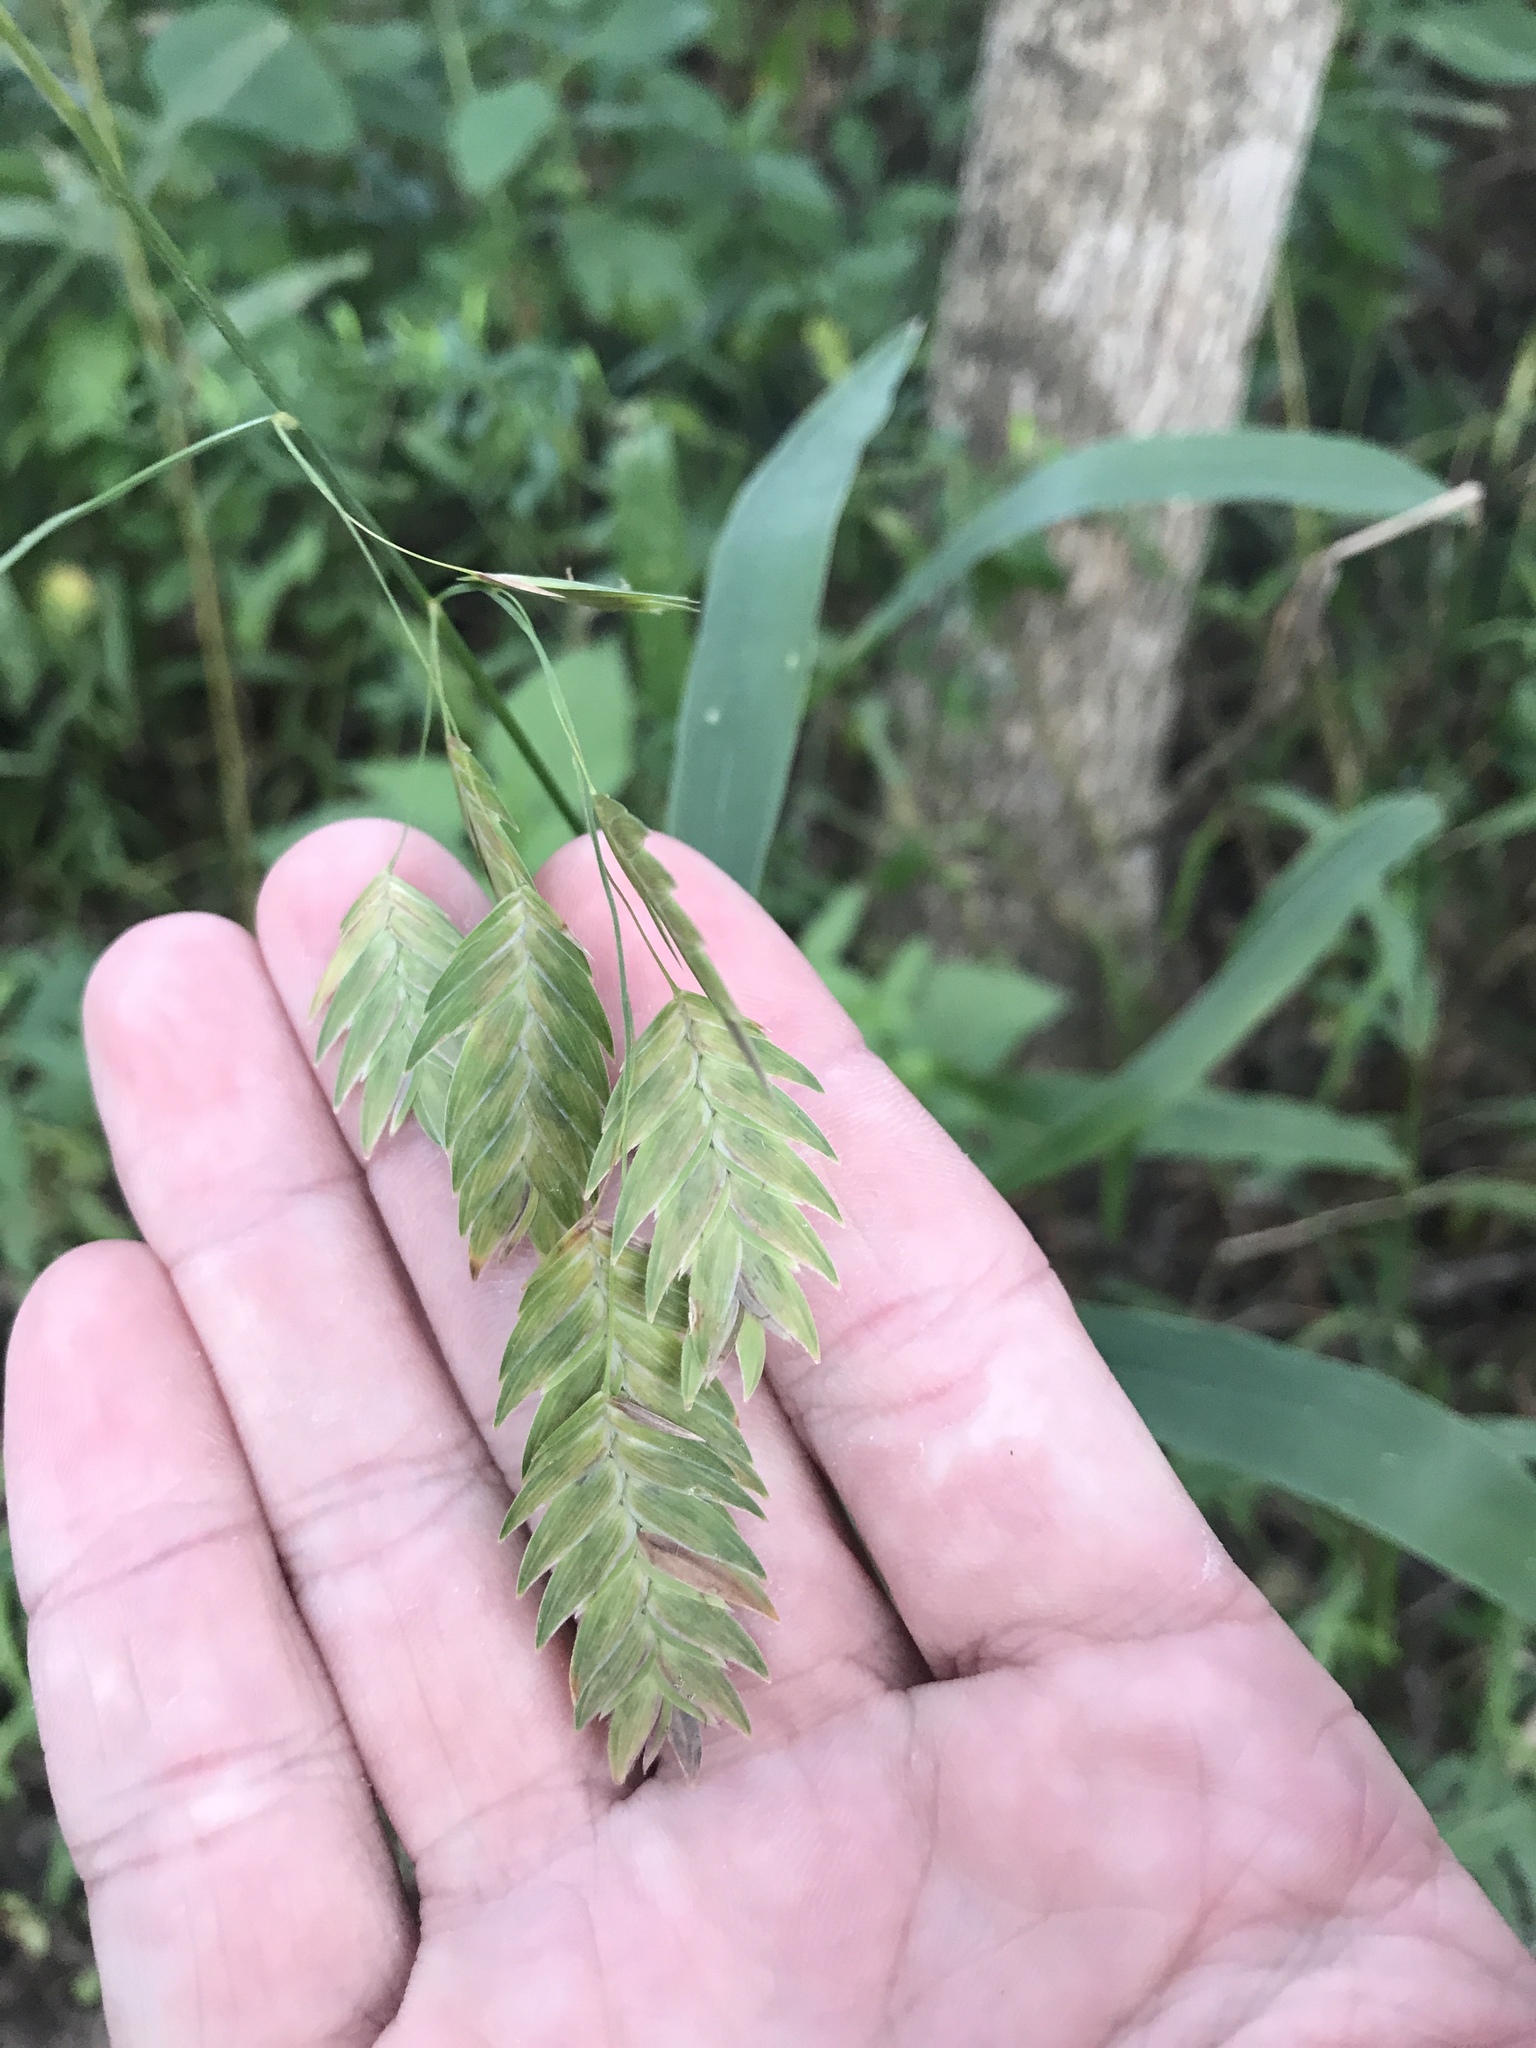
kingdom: Plantae
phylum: Tracheophyta
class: Liliopsida
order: Poales
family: Poaceae
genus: Chasmanthium
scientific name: Chasmanthium latifolium
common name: Broad-leaved chasmanthium
